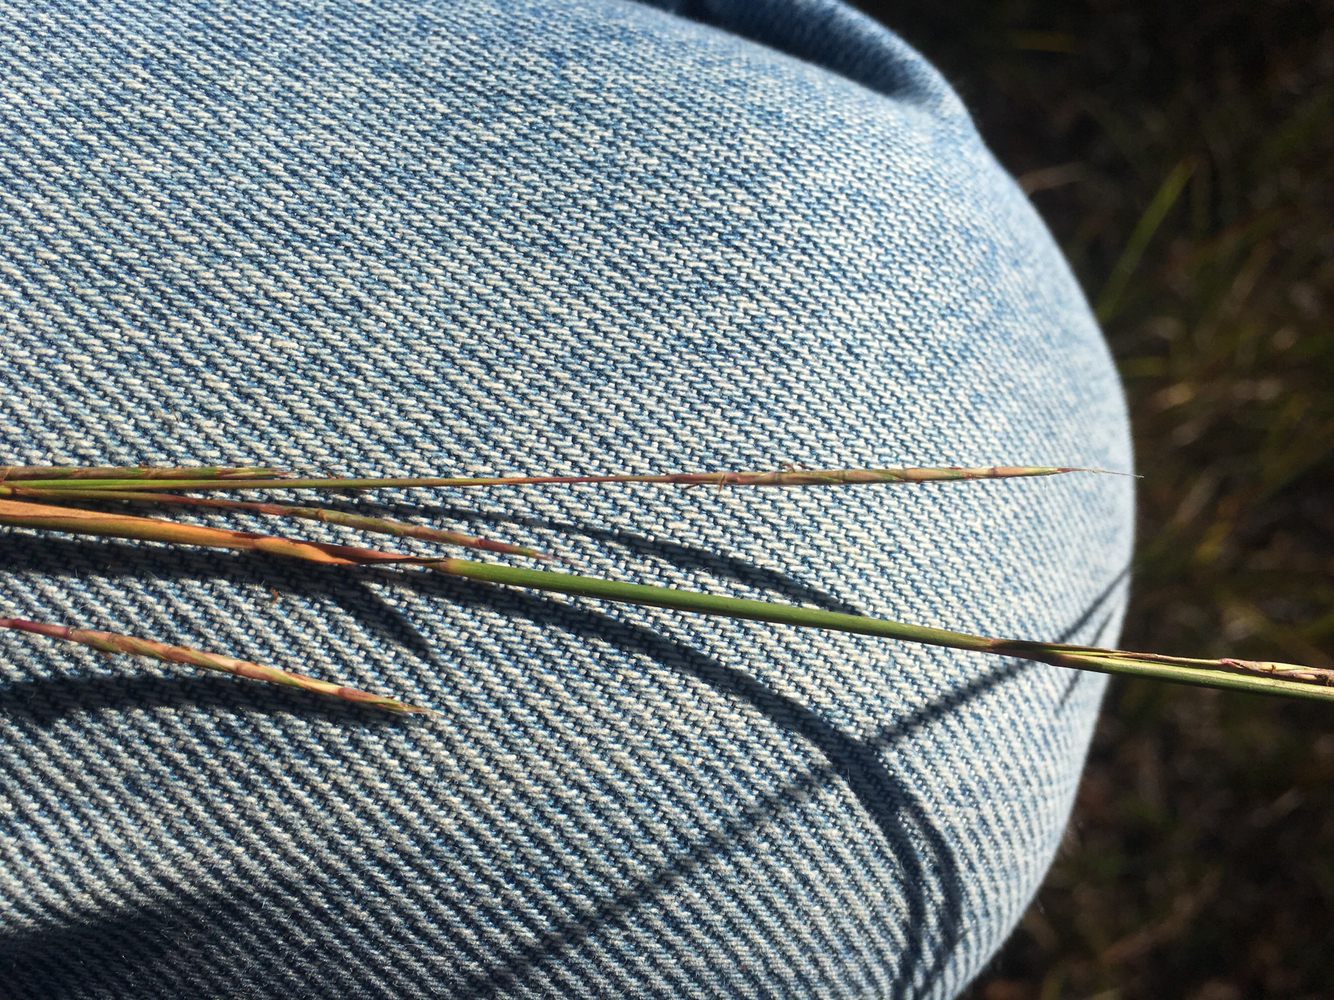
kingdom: Plantae
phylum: Tracheophyta
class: Liliopsida
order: Poales
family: Poaceae
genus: Schizachyrium
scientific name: Schizachyrium scoparium
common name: Little bluestem
